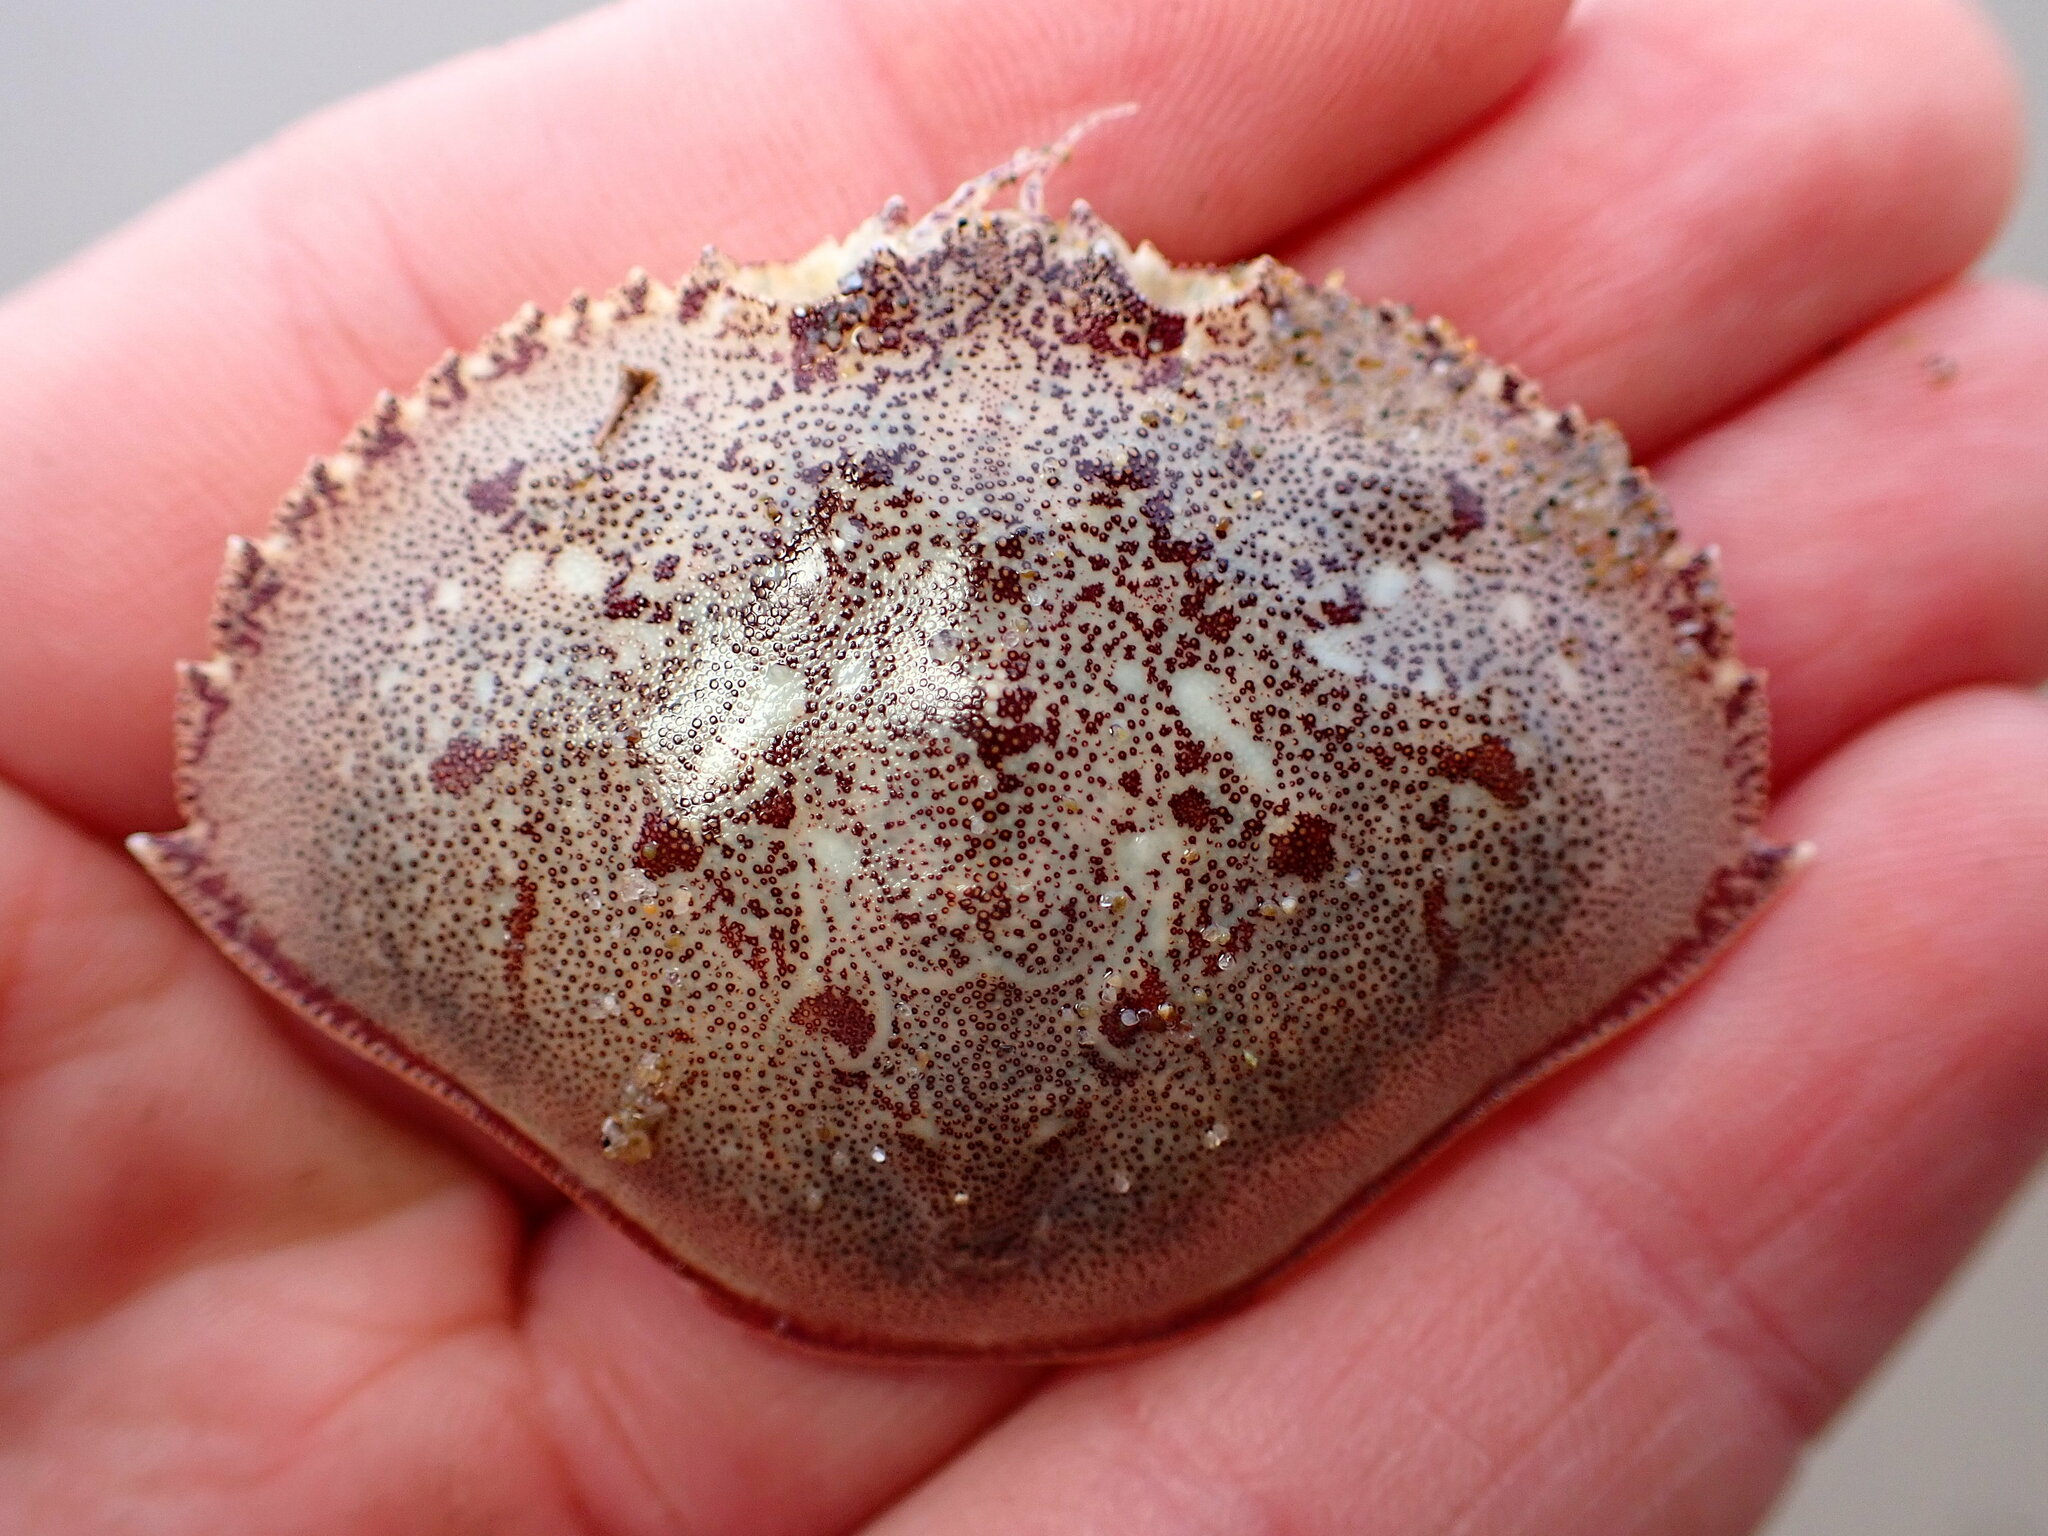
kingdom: Animalia
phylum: Arthropoda
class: Malacostraca
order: Decapoda
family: Cancridae
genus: Metacarcinus
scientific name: Metacarcinus magister
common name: Californian crab
